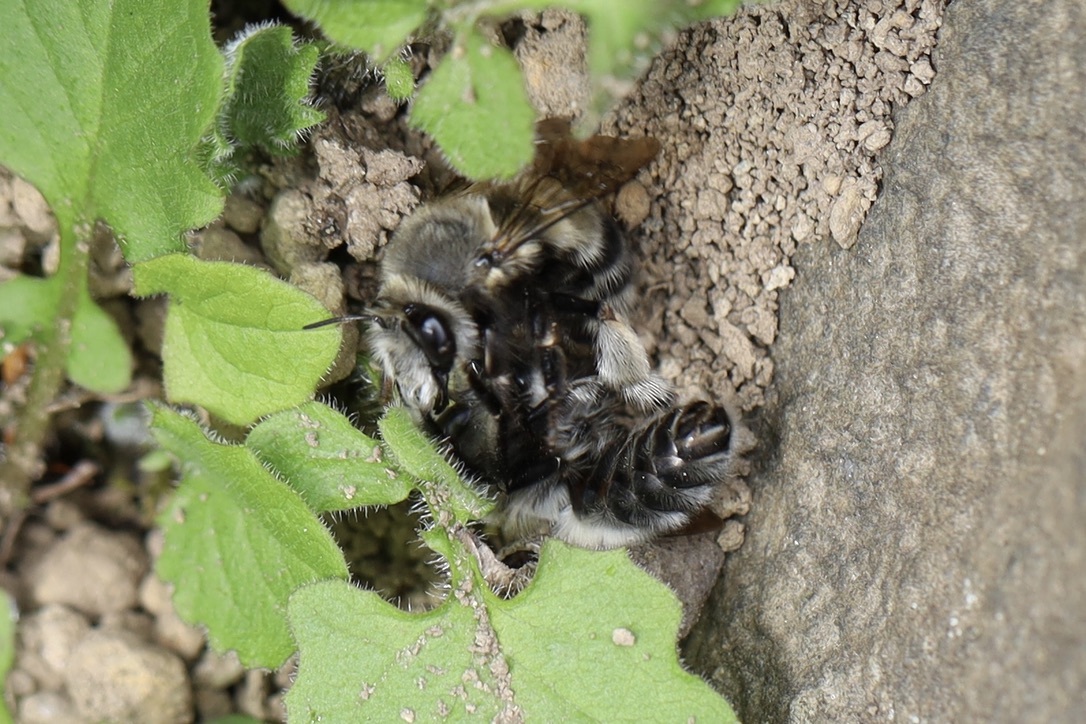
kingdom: Animalia
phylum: Arthropoda
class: Insecta
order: Hymenoptera
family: Apidae
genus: Anthophora
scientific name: Anthophora pacifica
